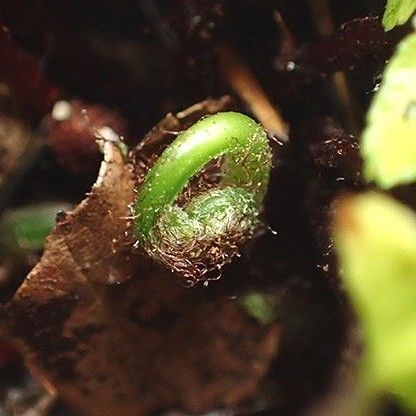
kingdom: Plantae
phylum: Tracheophyta
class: Polypodiopsida
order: Polypodiales
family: Aspleniaceae
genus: Asplenium
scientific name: Asplenium platyneuron
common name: Ebony spleenwort
